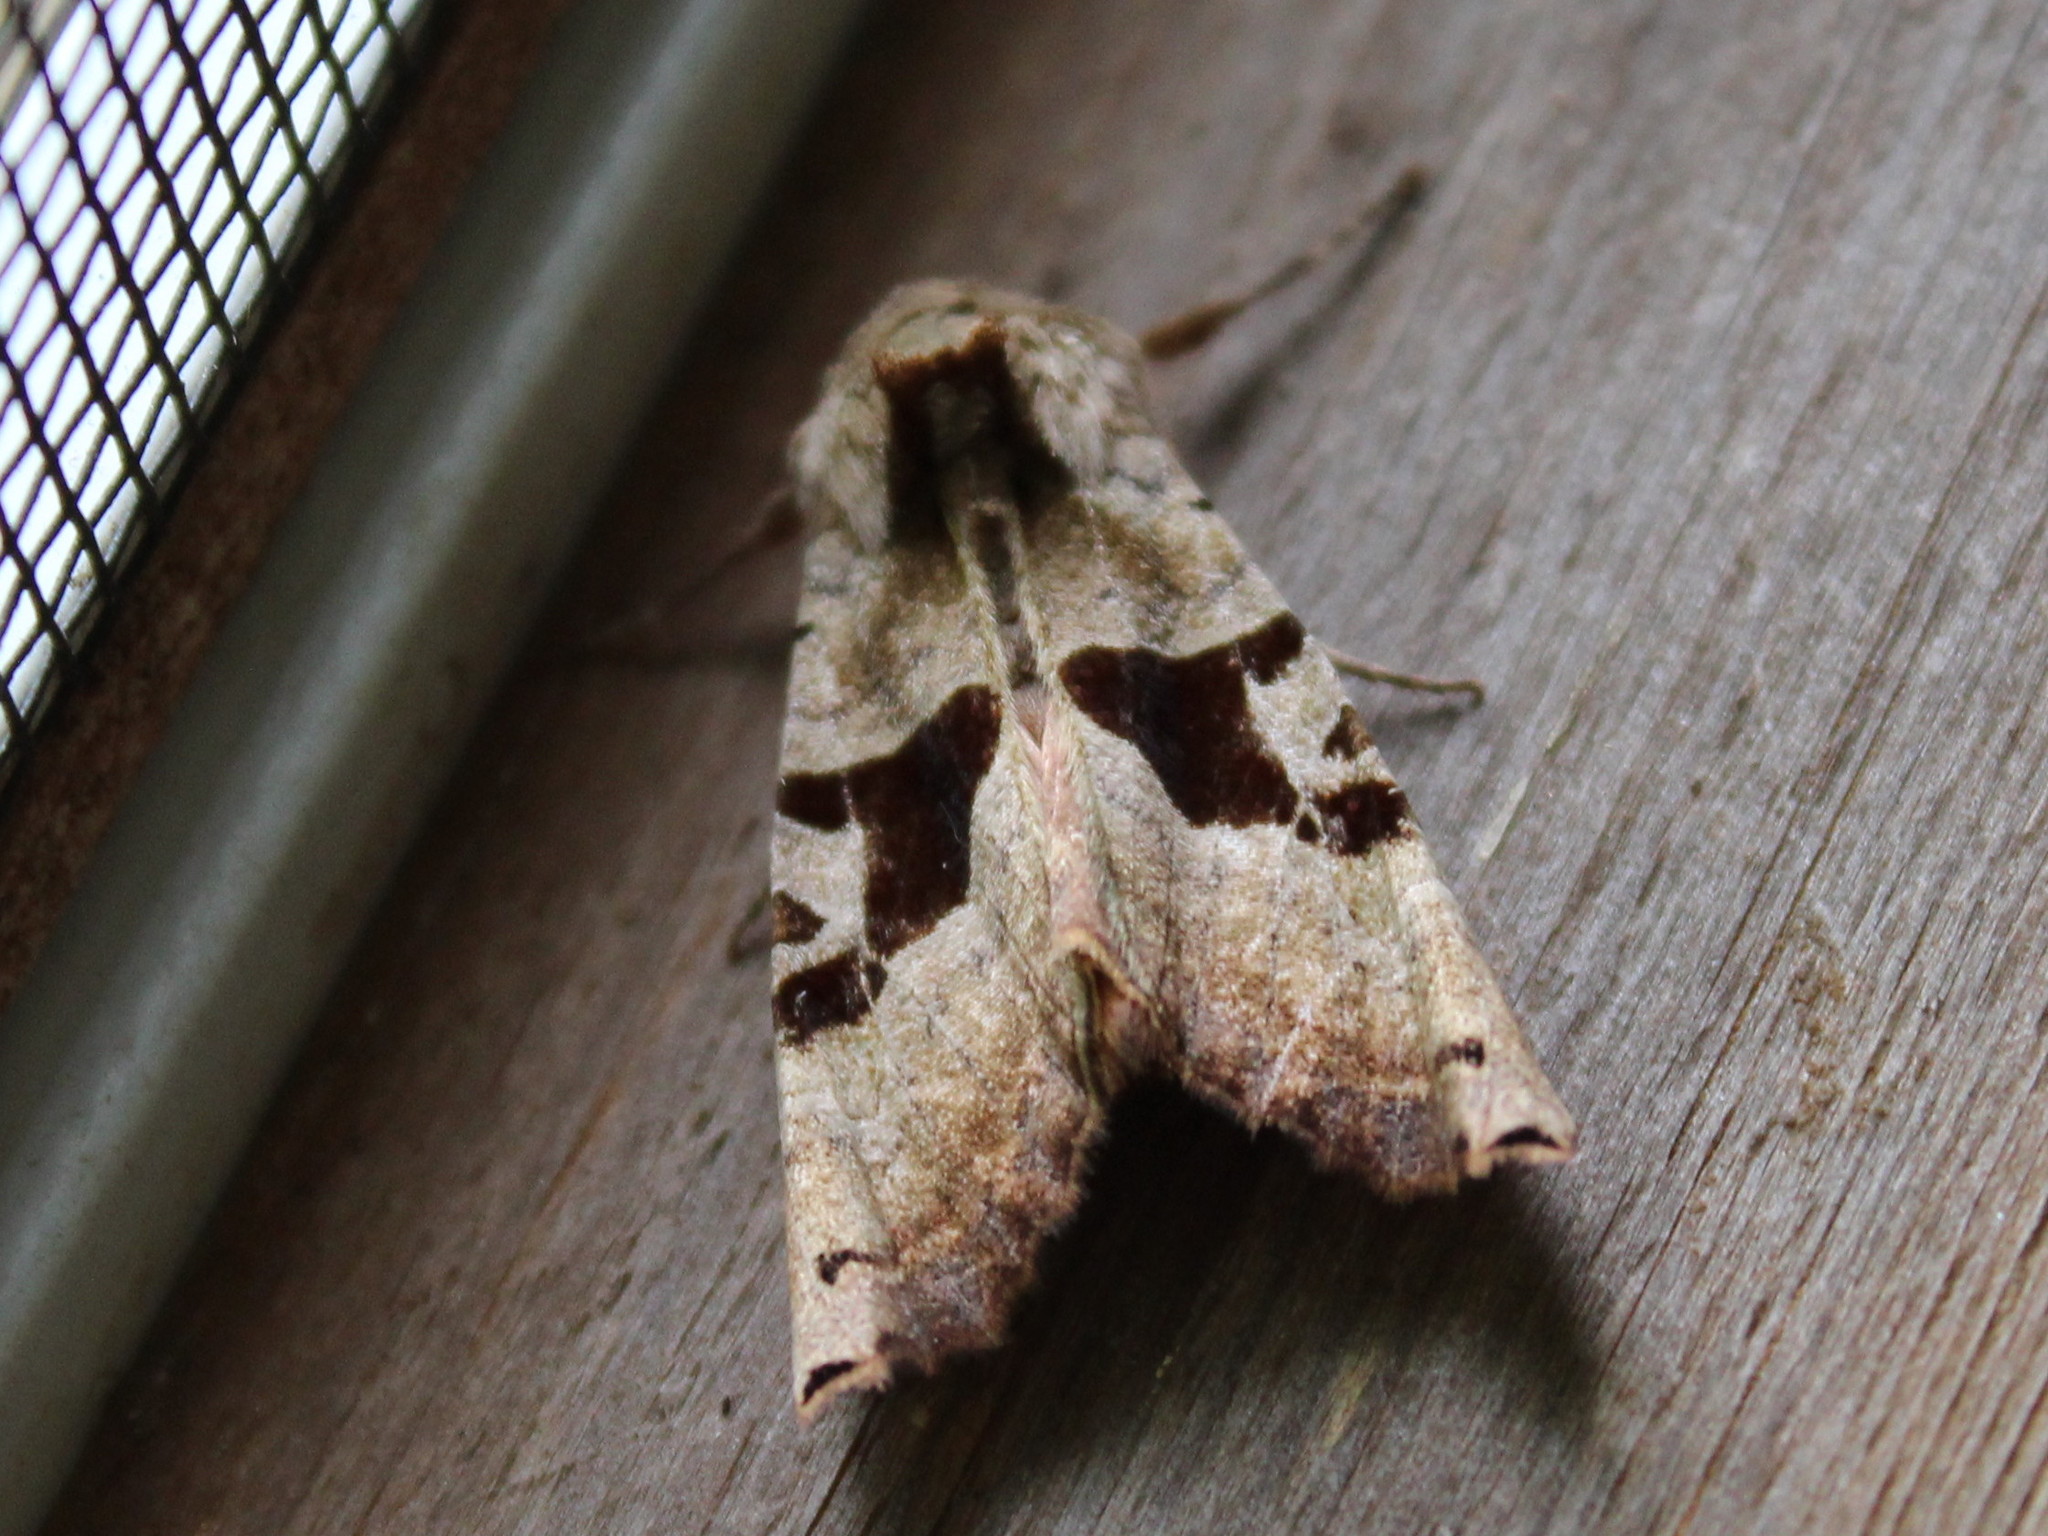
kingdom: Animalia
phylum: Arthropoda
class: Insecta
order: Lepidoptera
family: Noctuidae
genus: Phlogophora
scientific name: Phlogophora periculosa
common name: Brown angle shades
